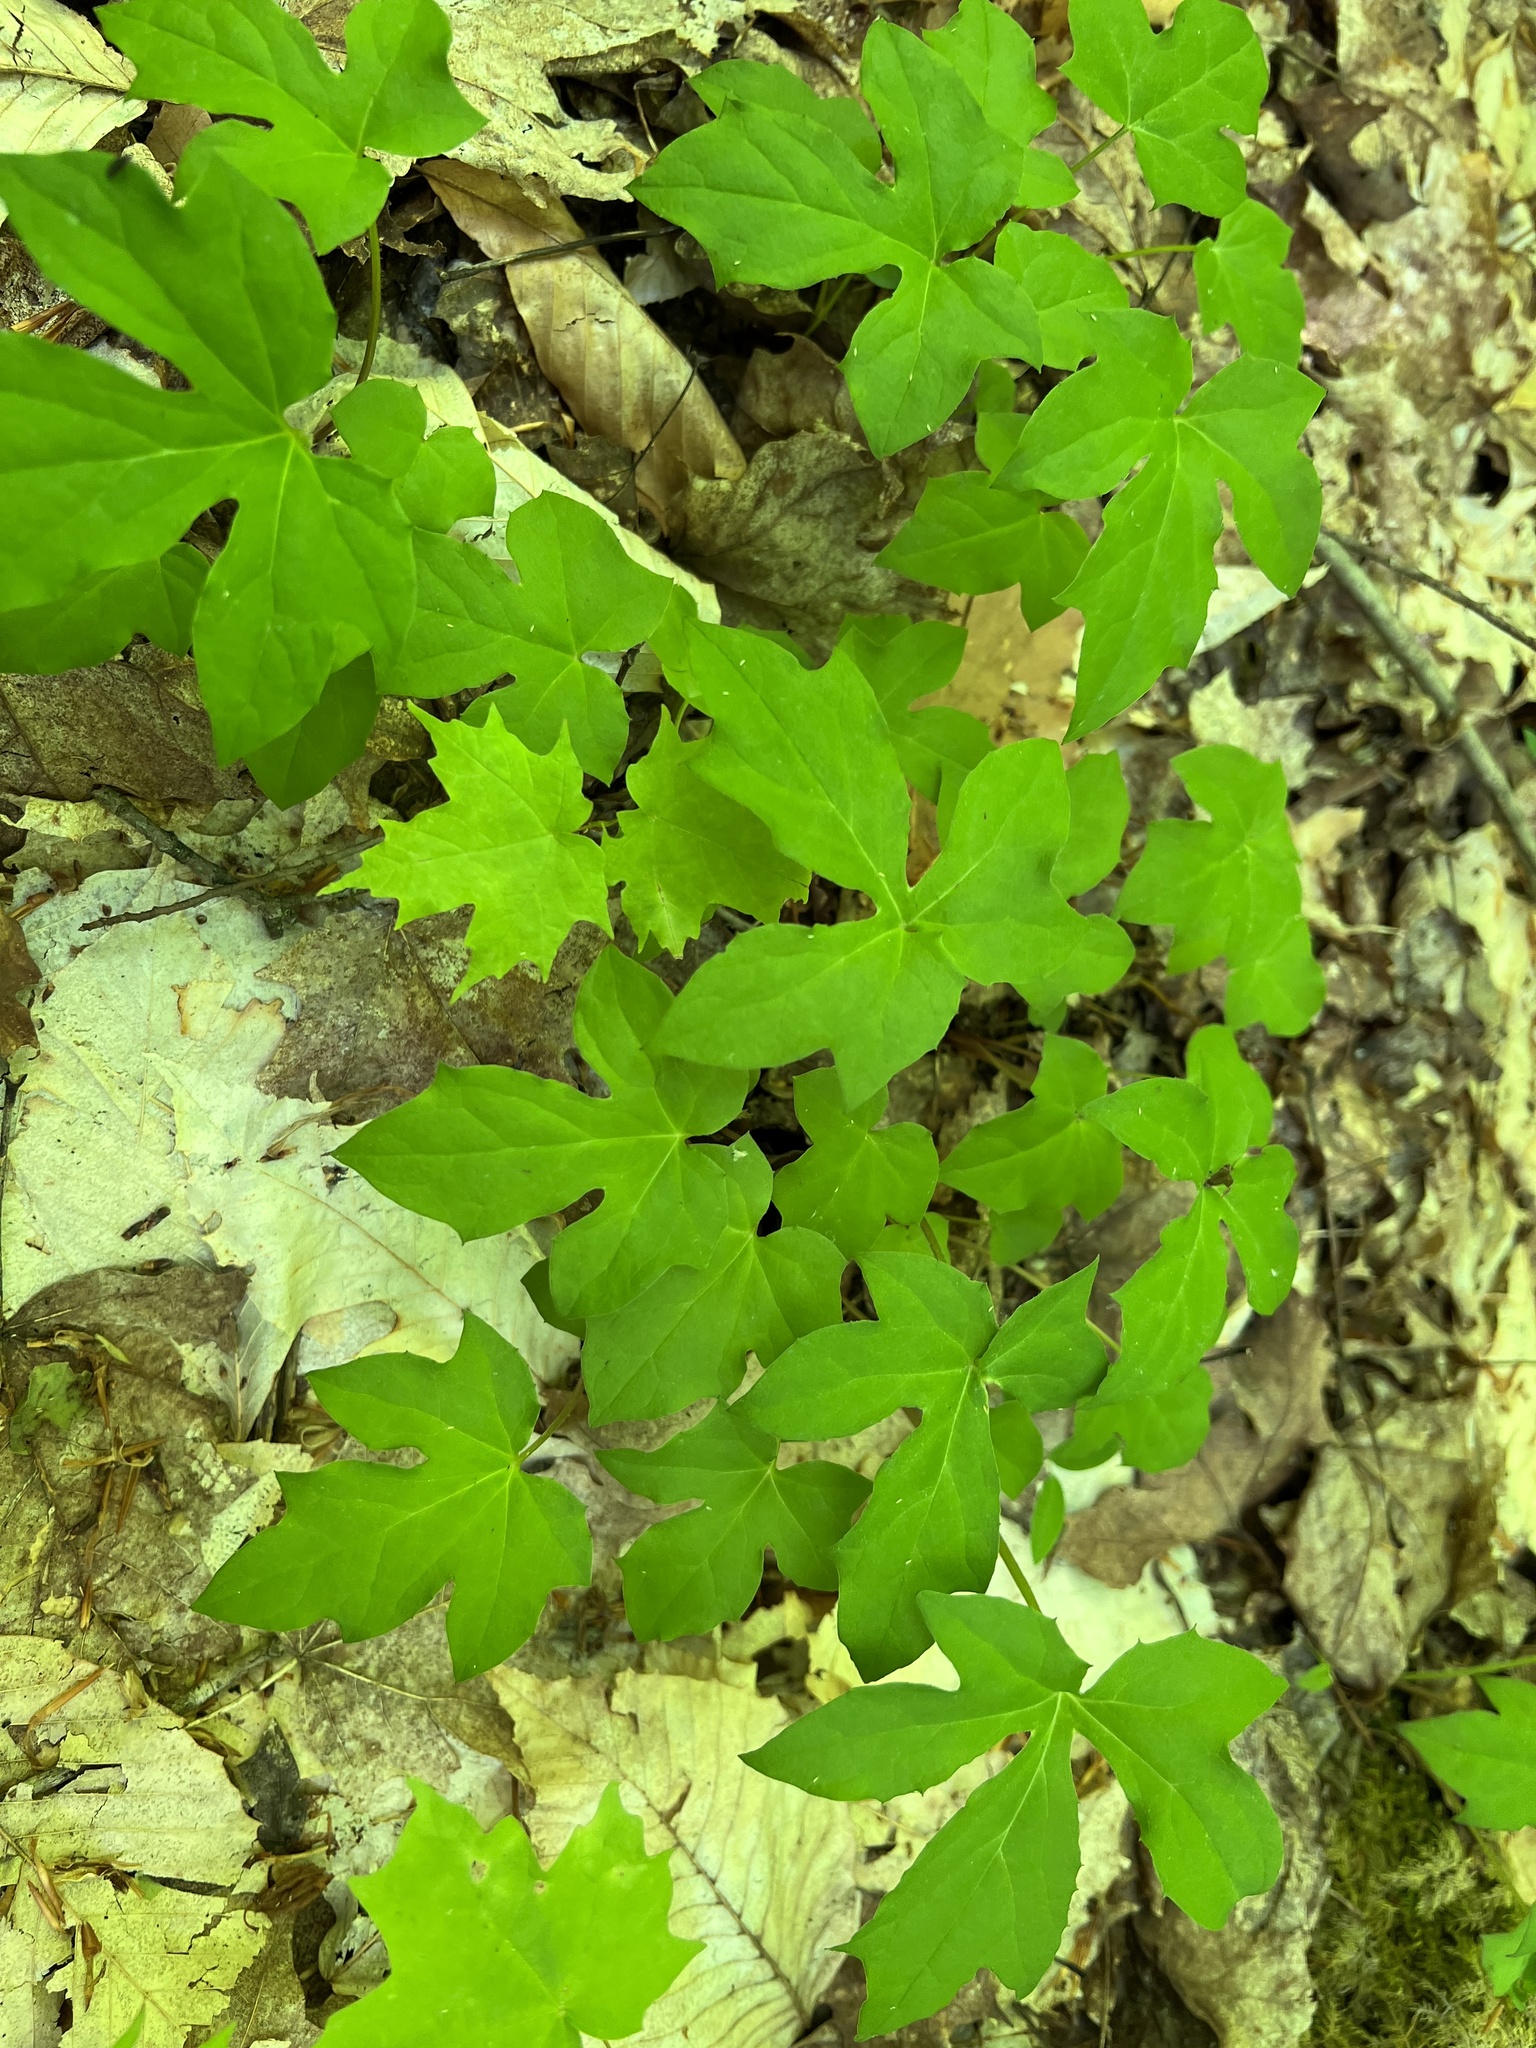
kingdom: Plantae
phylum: Tracheophyta
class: Magnoliopsida
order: Asterales
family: Asteraceae
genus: Nabalus
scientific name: Nabalus
